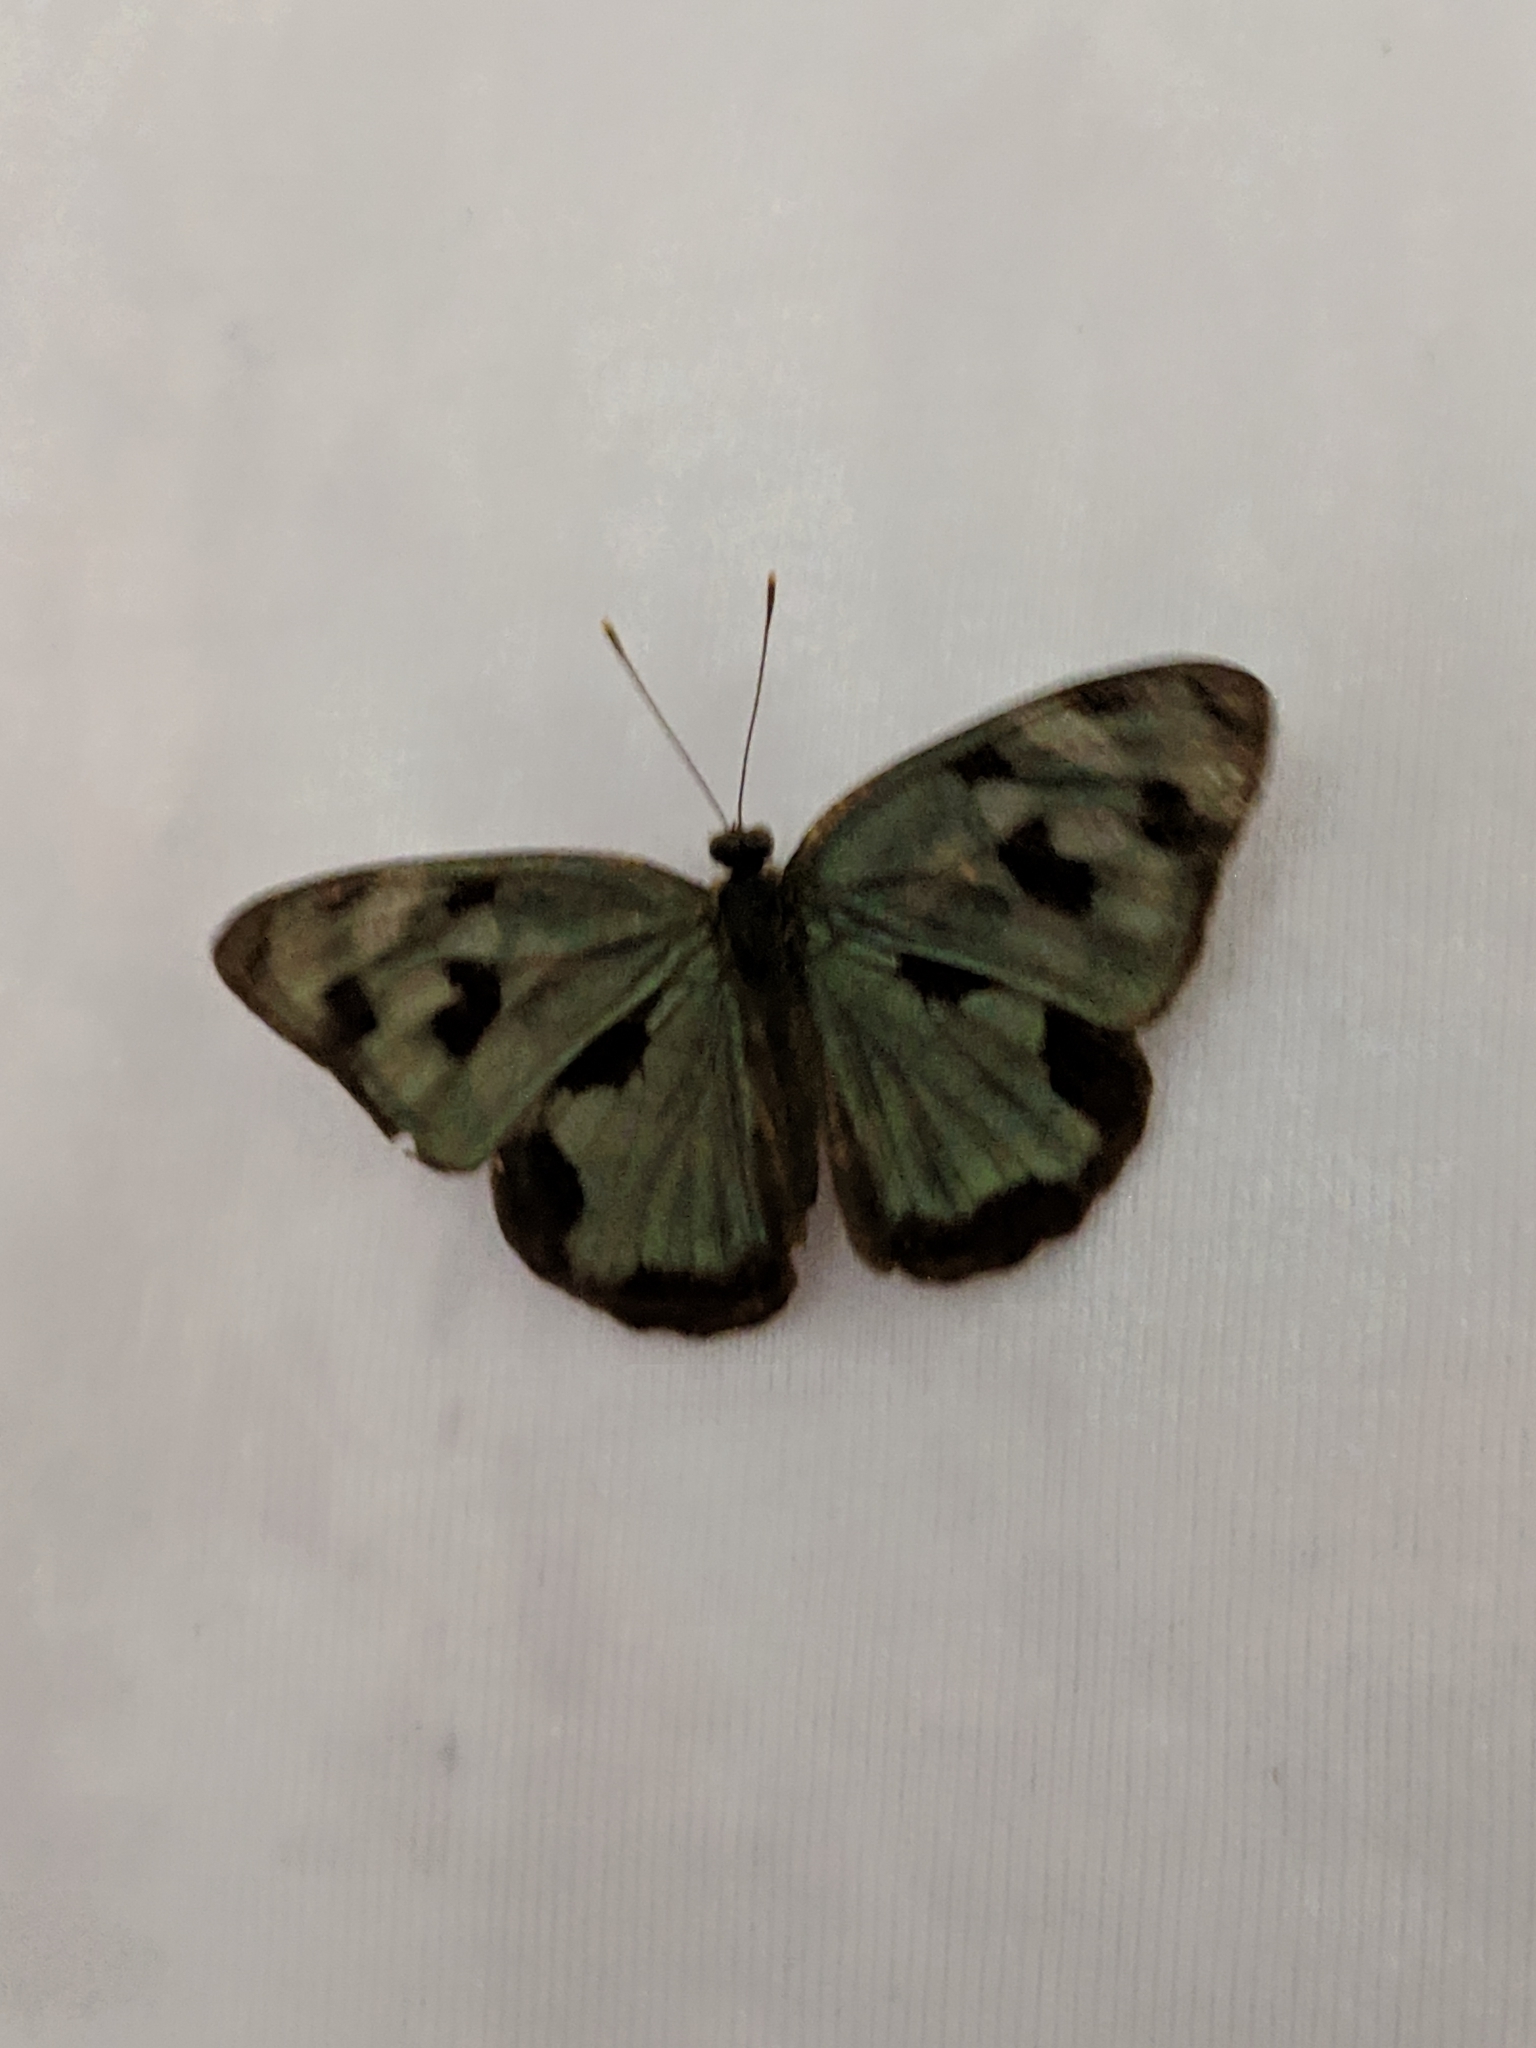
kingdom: Animalia
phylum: Arthropoda
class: Insecta
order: Lepidoptera
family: Nymphalidae
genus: Dynamine
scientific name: Dynamine mylitta
